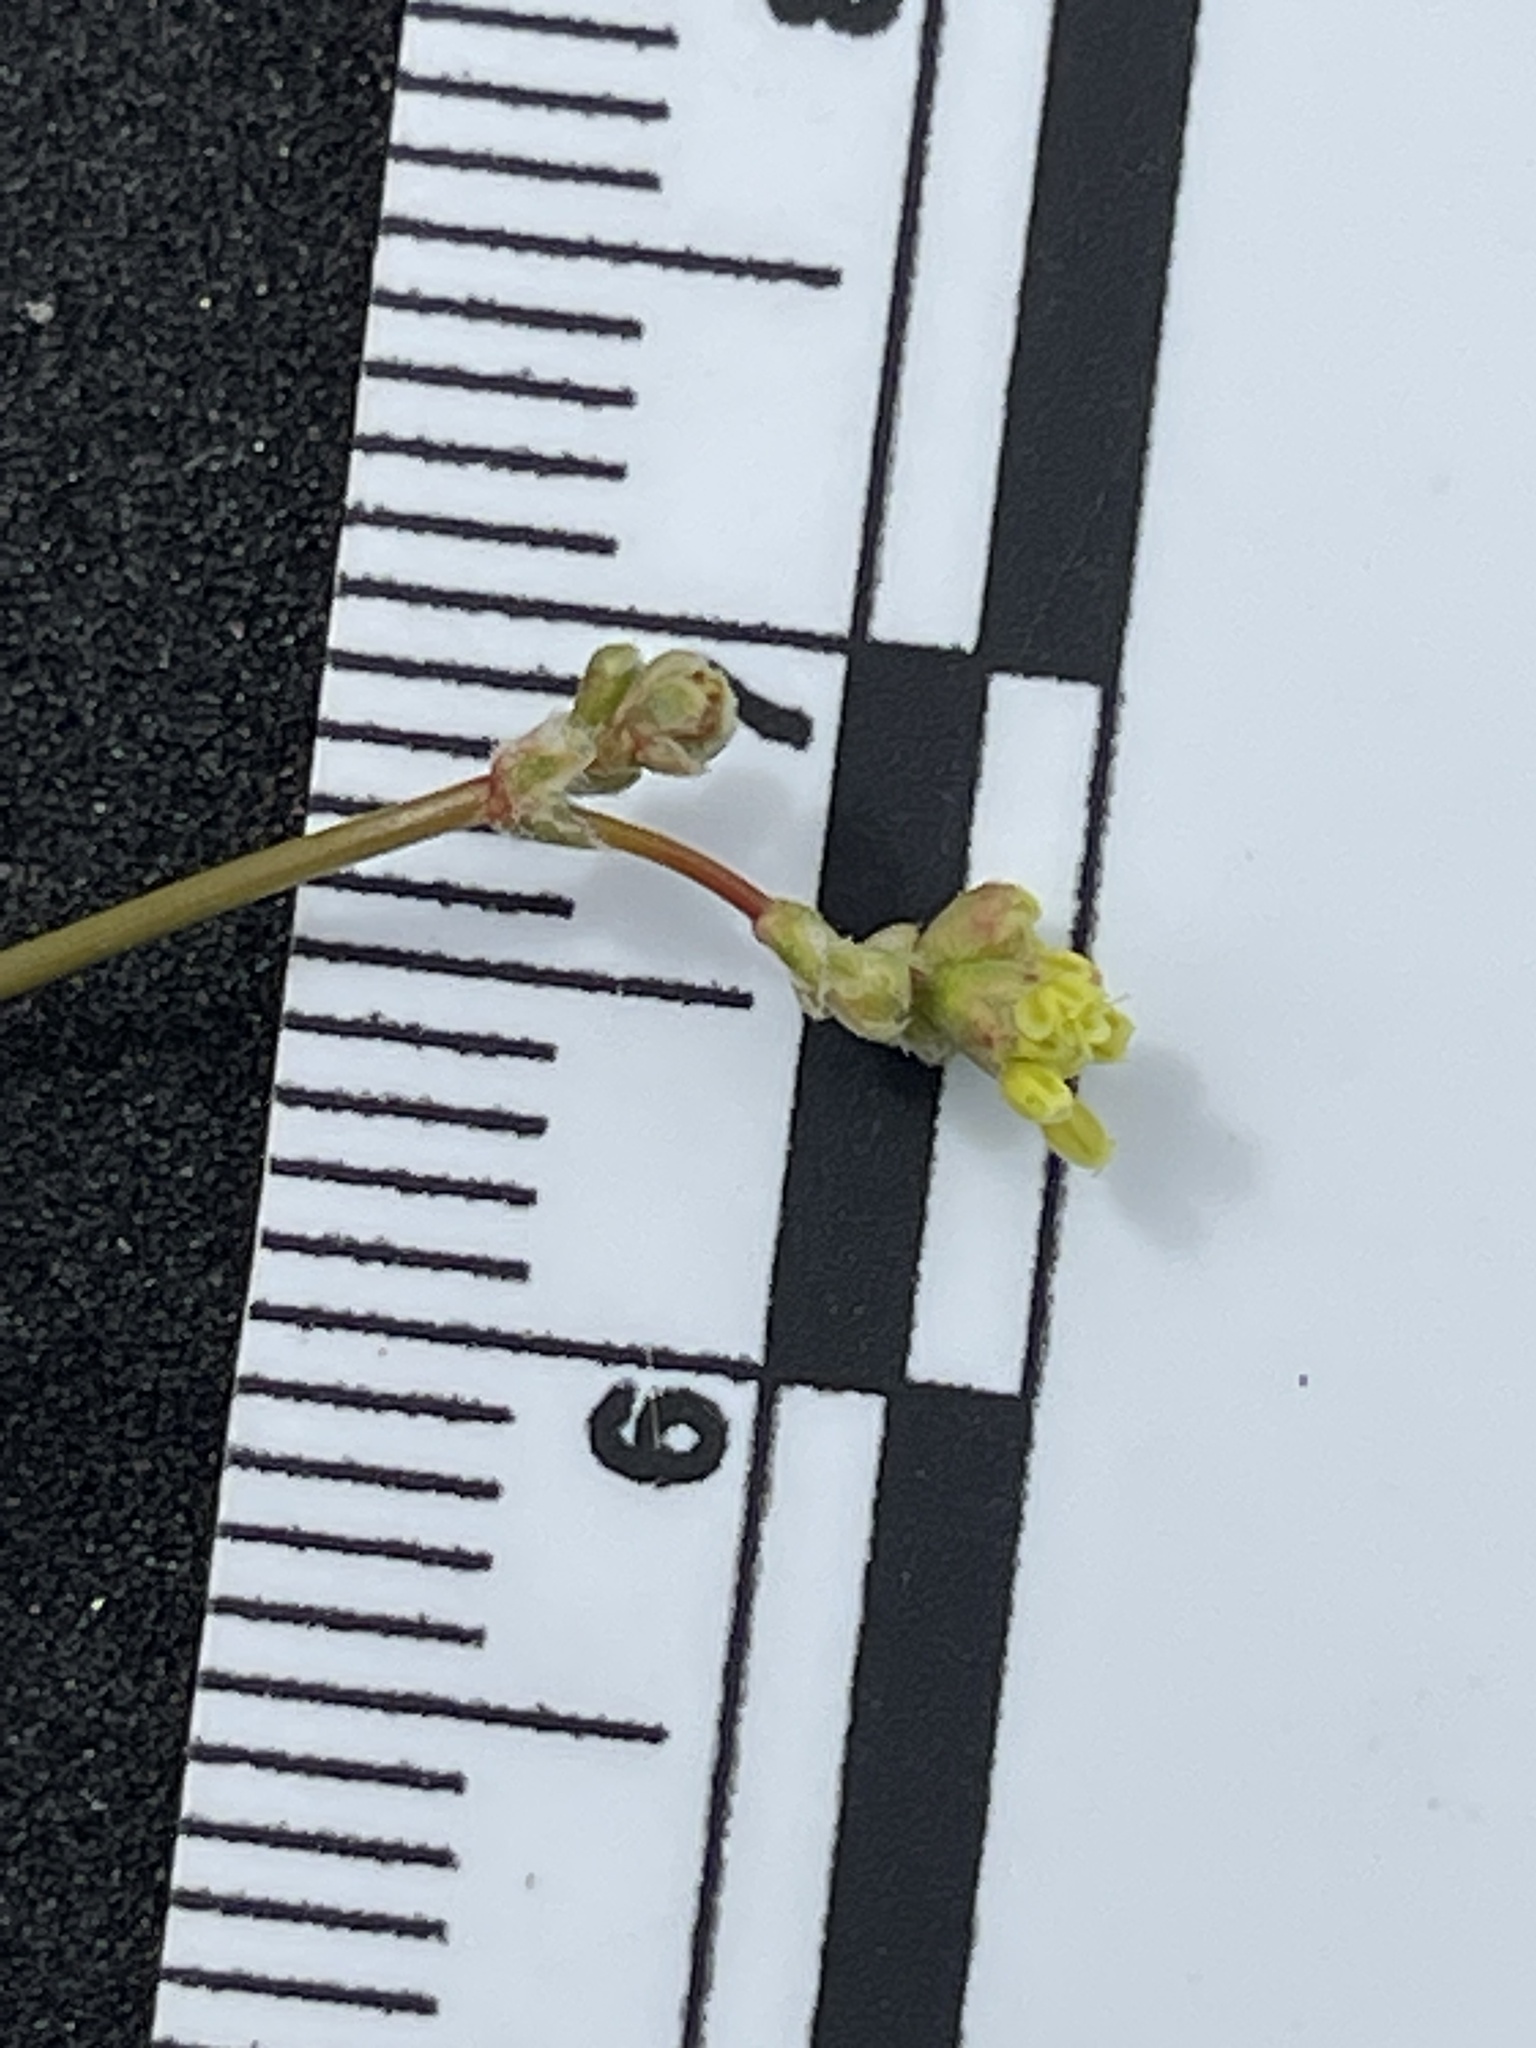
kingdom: Plantae
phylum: Tracheophyta
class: Magnoliopsida
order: Caryophyllales
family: Polygonaceae
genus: Eriogonum
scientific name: Eriogonum reniforme
